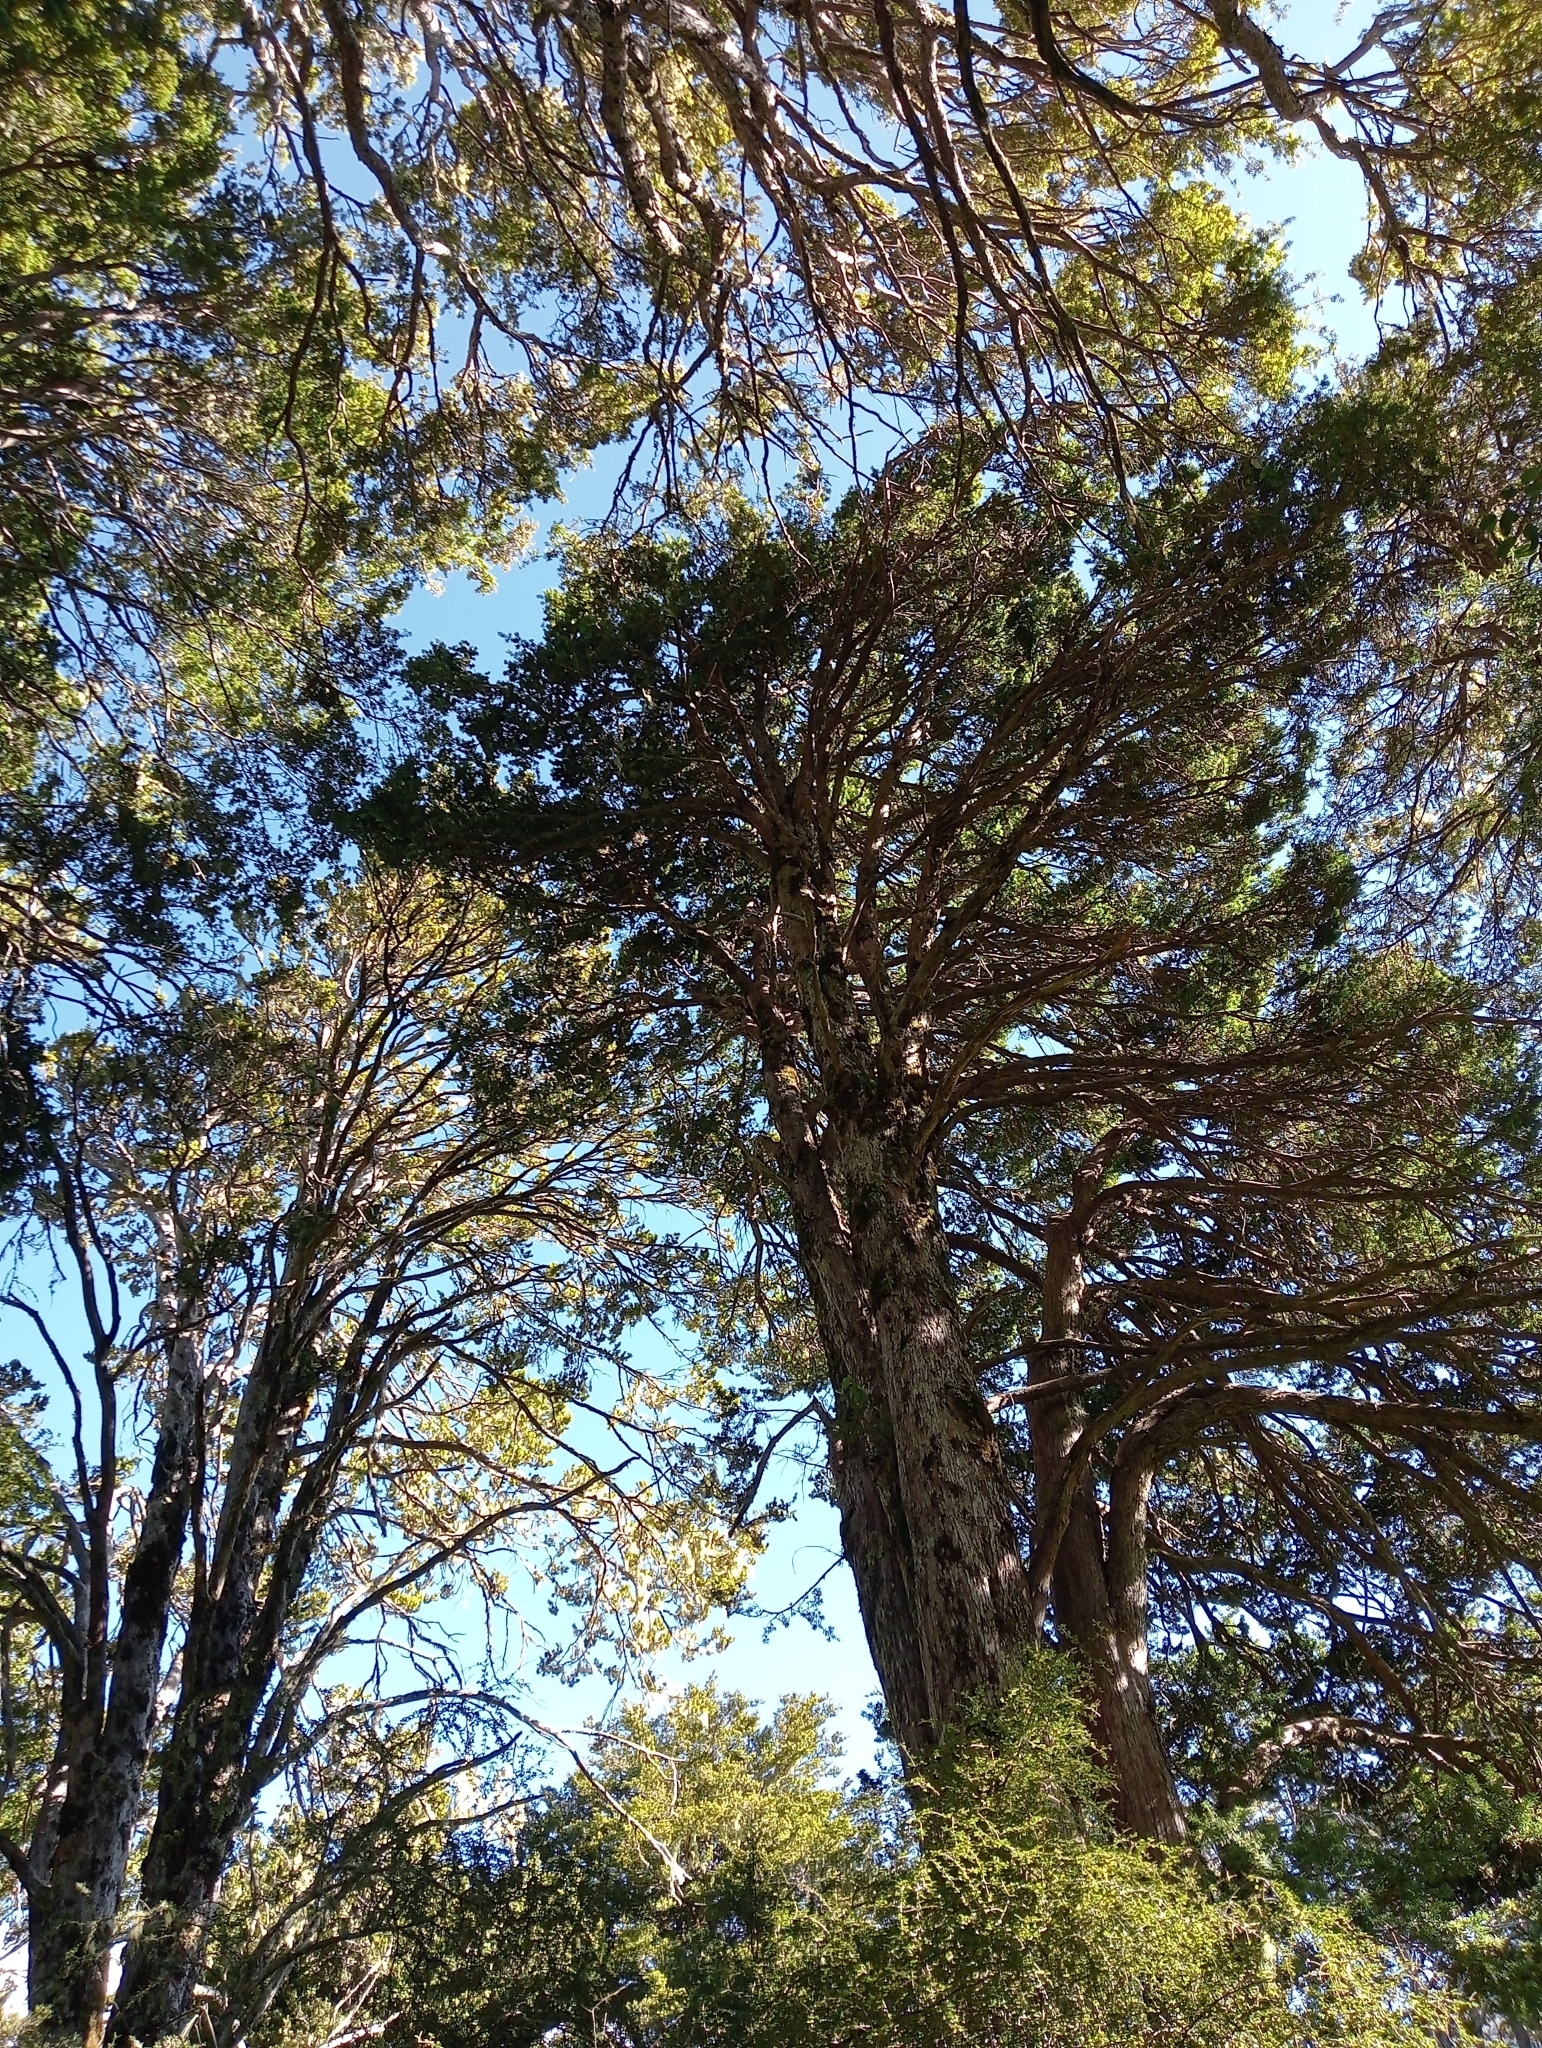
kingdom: Plantae
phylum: Tracheophyta
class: Pinopsida
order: Pinales
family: Podocarpaceae
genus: Podocarpus
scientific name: Podocarpus laetus
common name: Hall's totara
